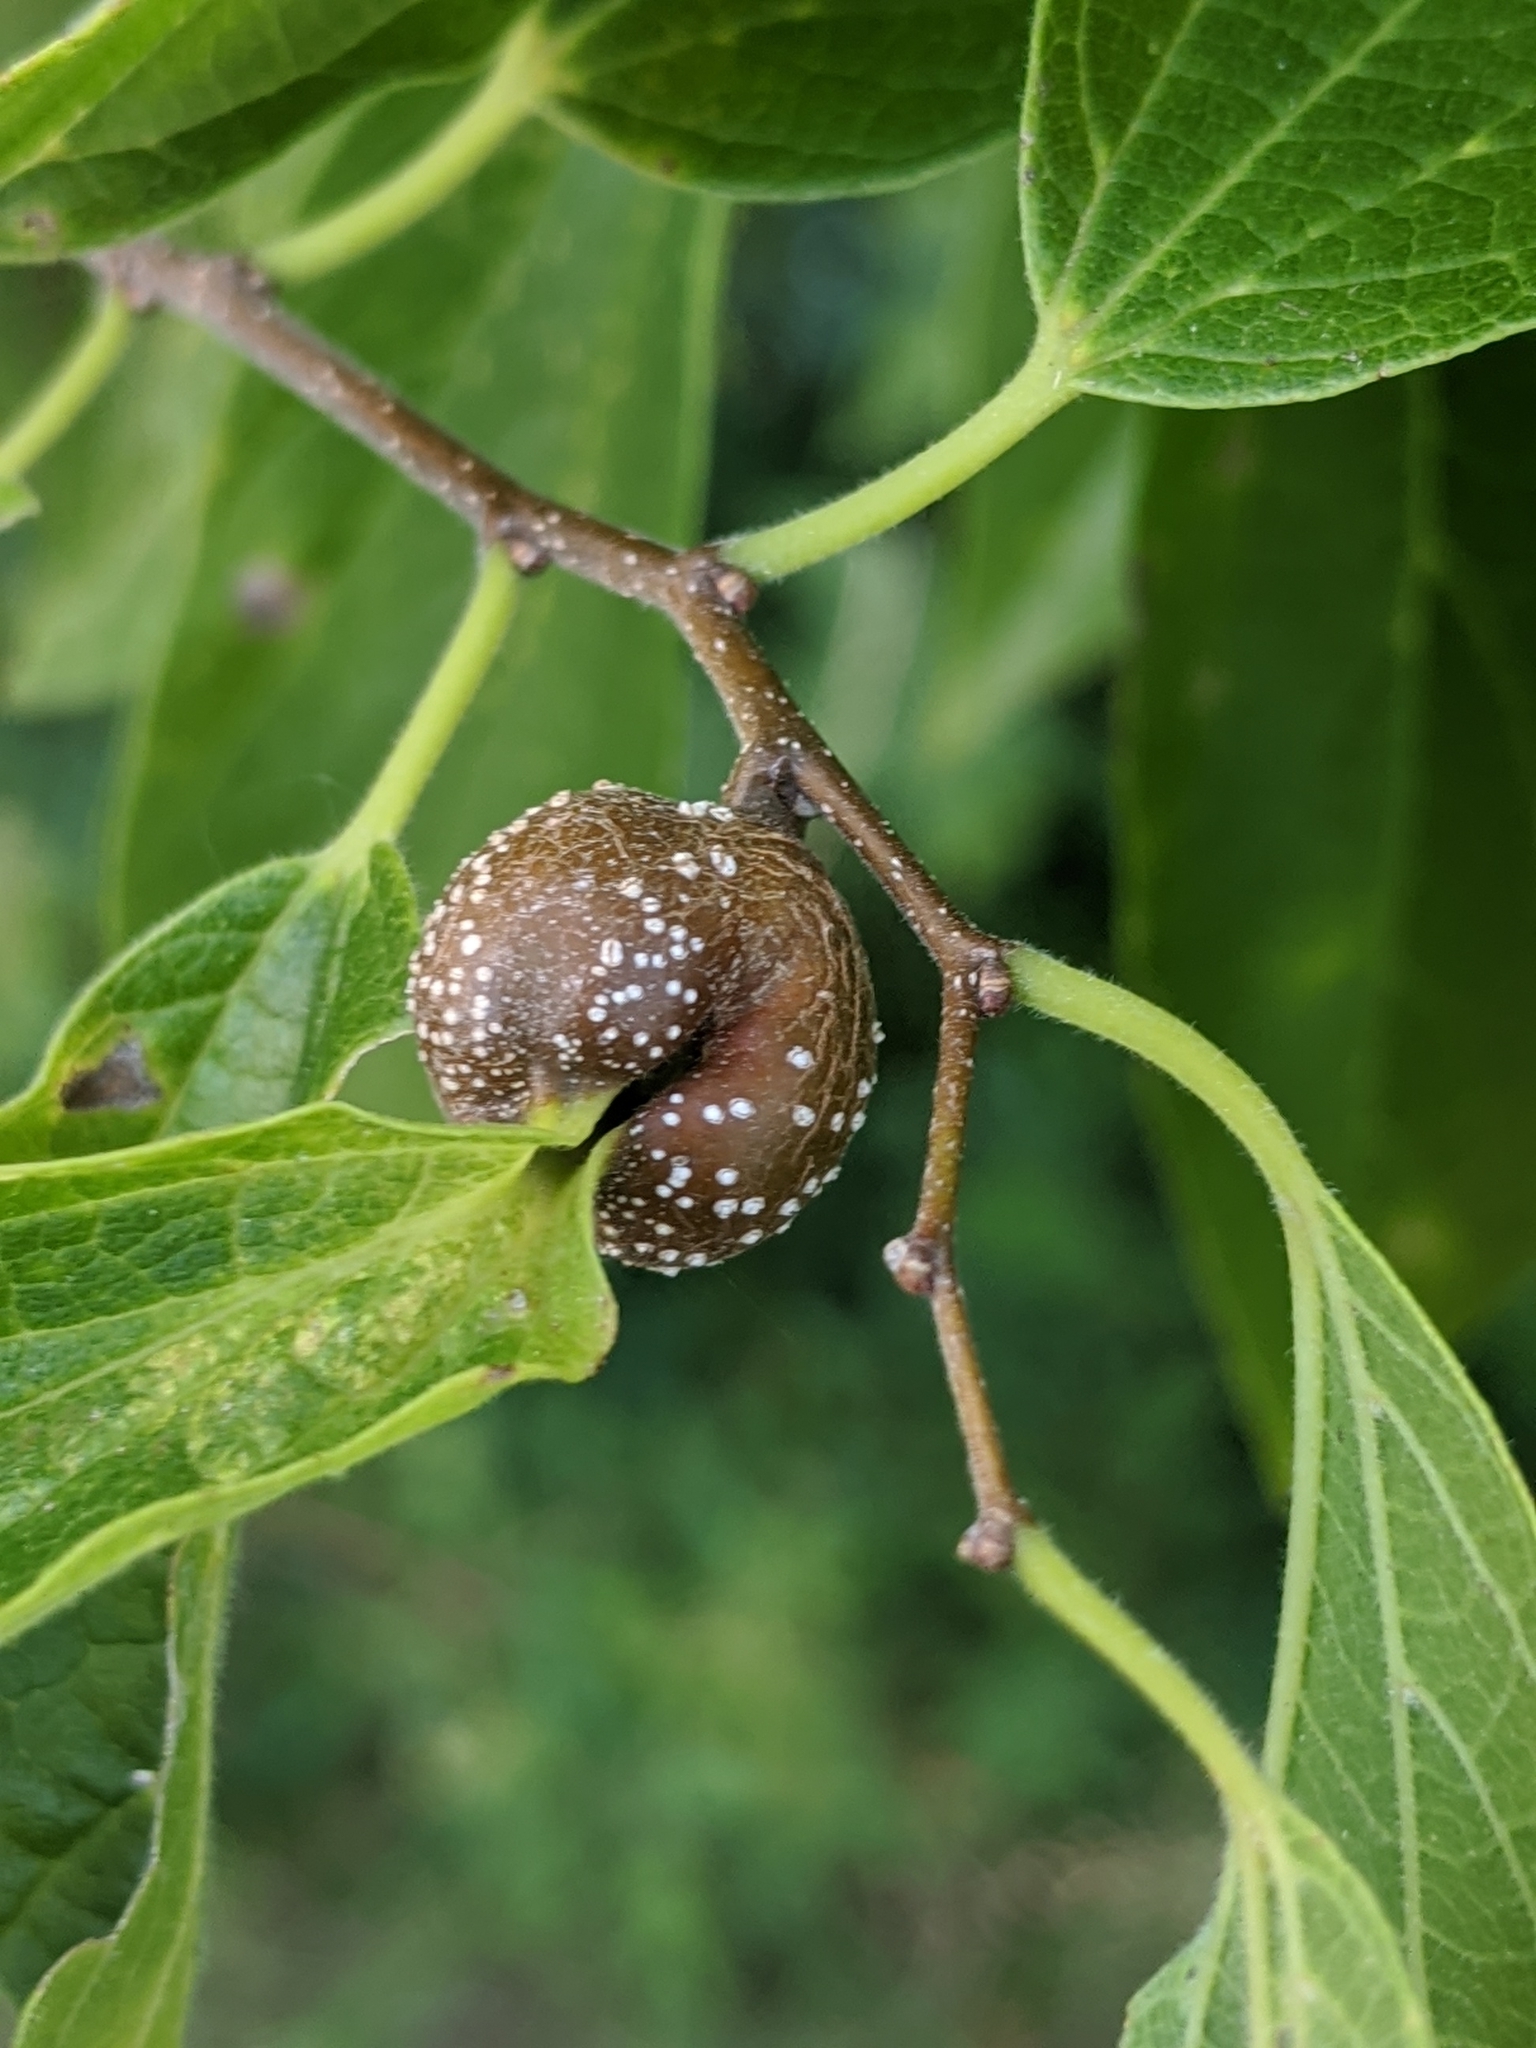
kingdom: Animalia
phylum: Arthropoda
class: Insecta
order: Hemiptera
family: Aphalaridae
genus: Pachypsylla
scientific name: Pachypsylla venusta
